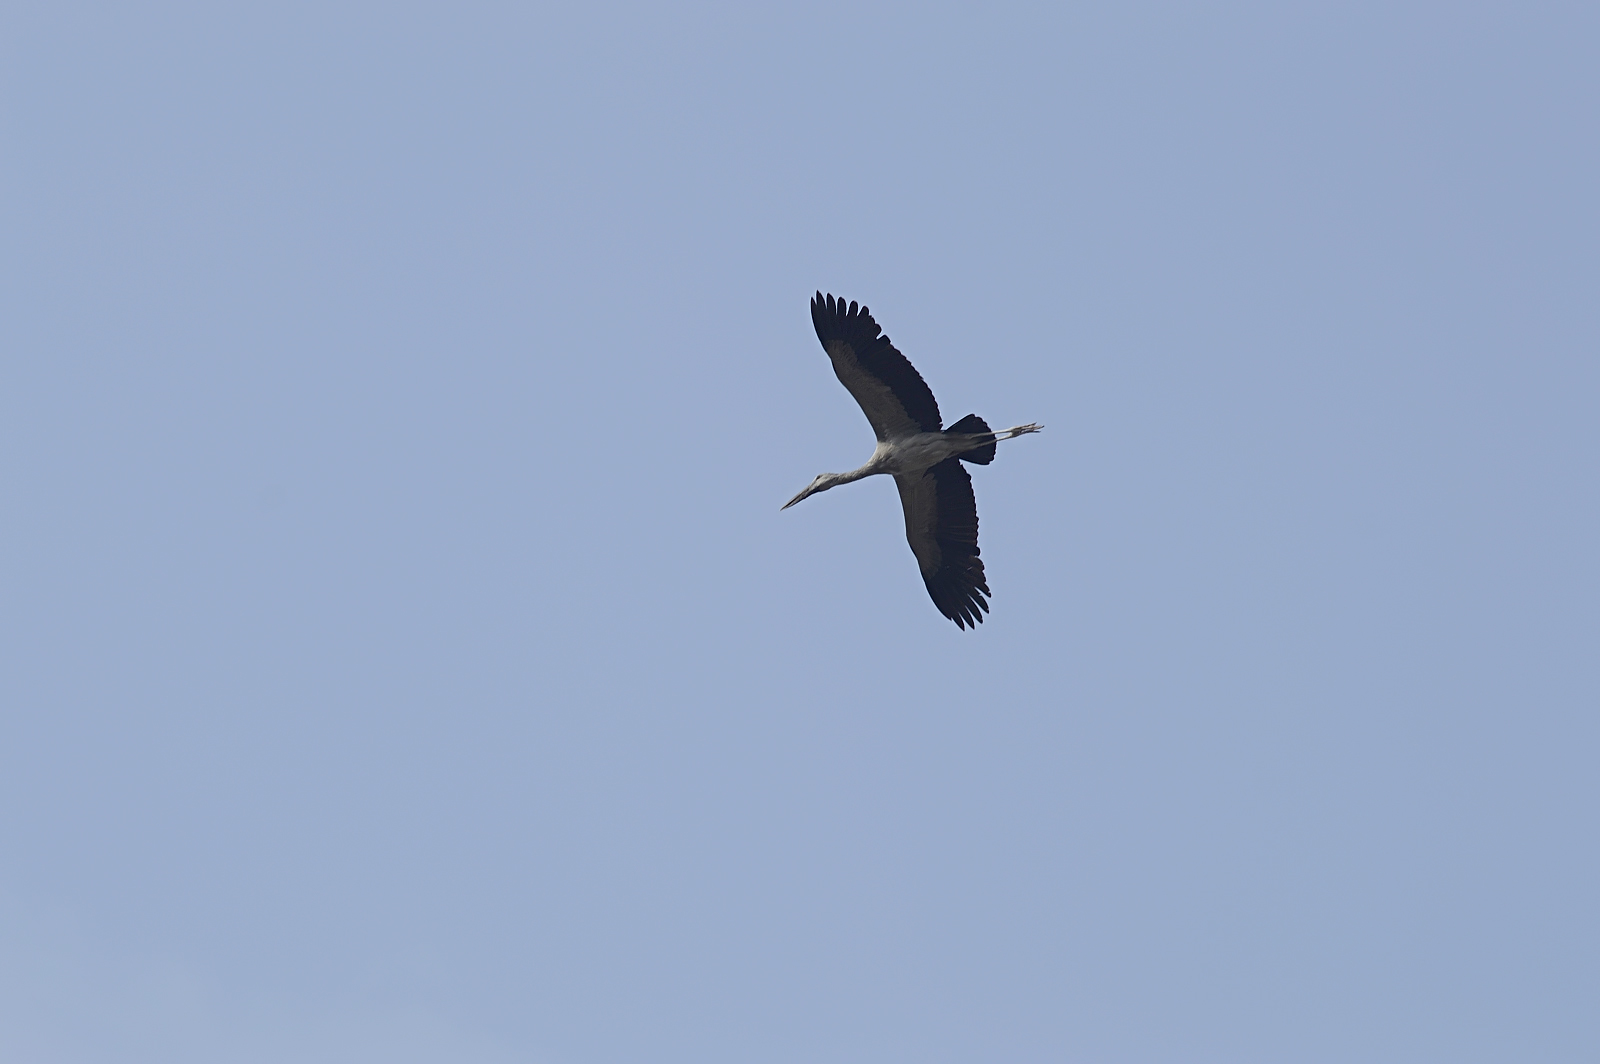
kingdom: Animalia
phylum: Chordata
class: Aves
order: Ciconiiformes
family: Ciconiidae
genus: Anastomus
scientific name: Anastomus oscitans
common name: Asian openbill
